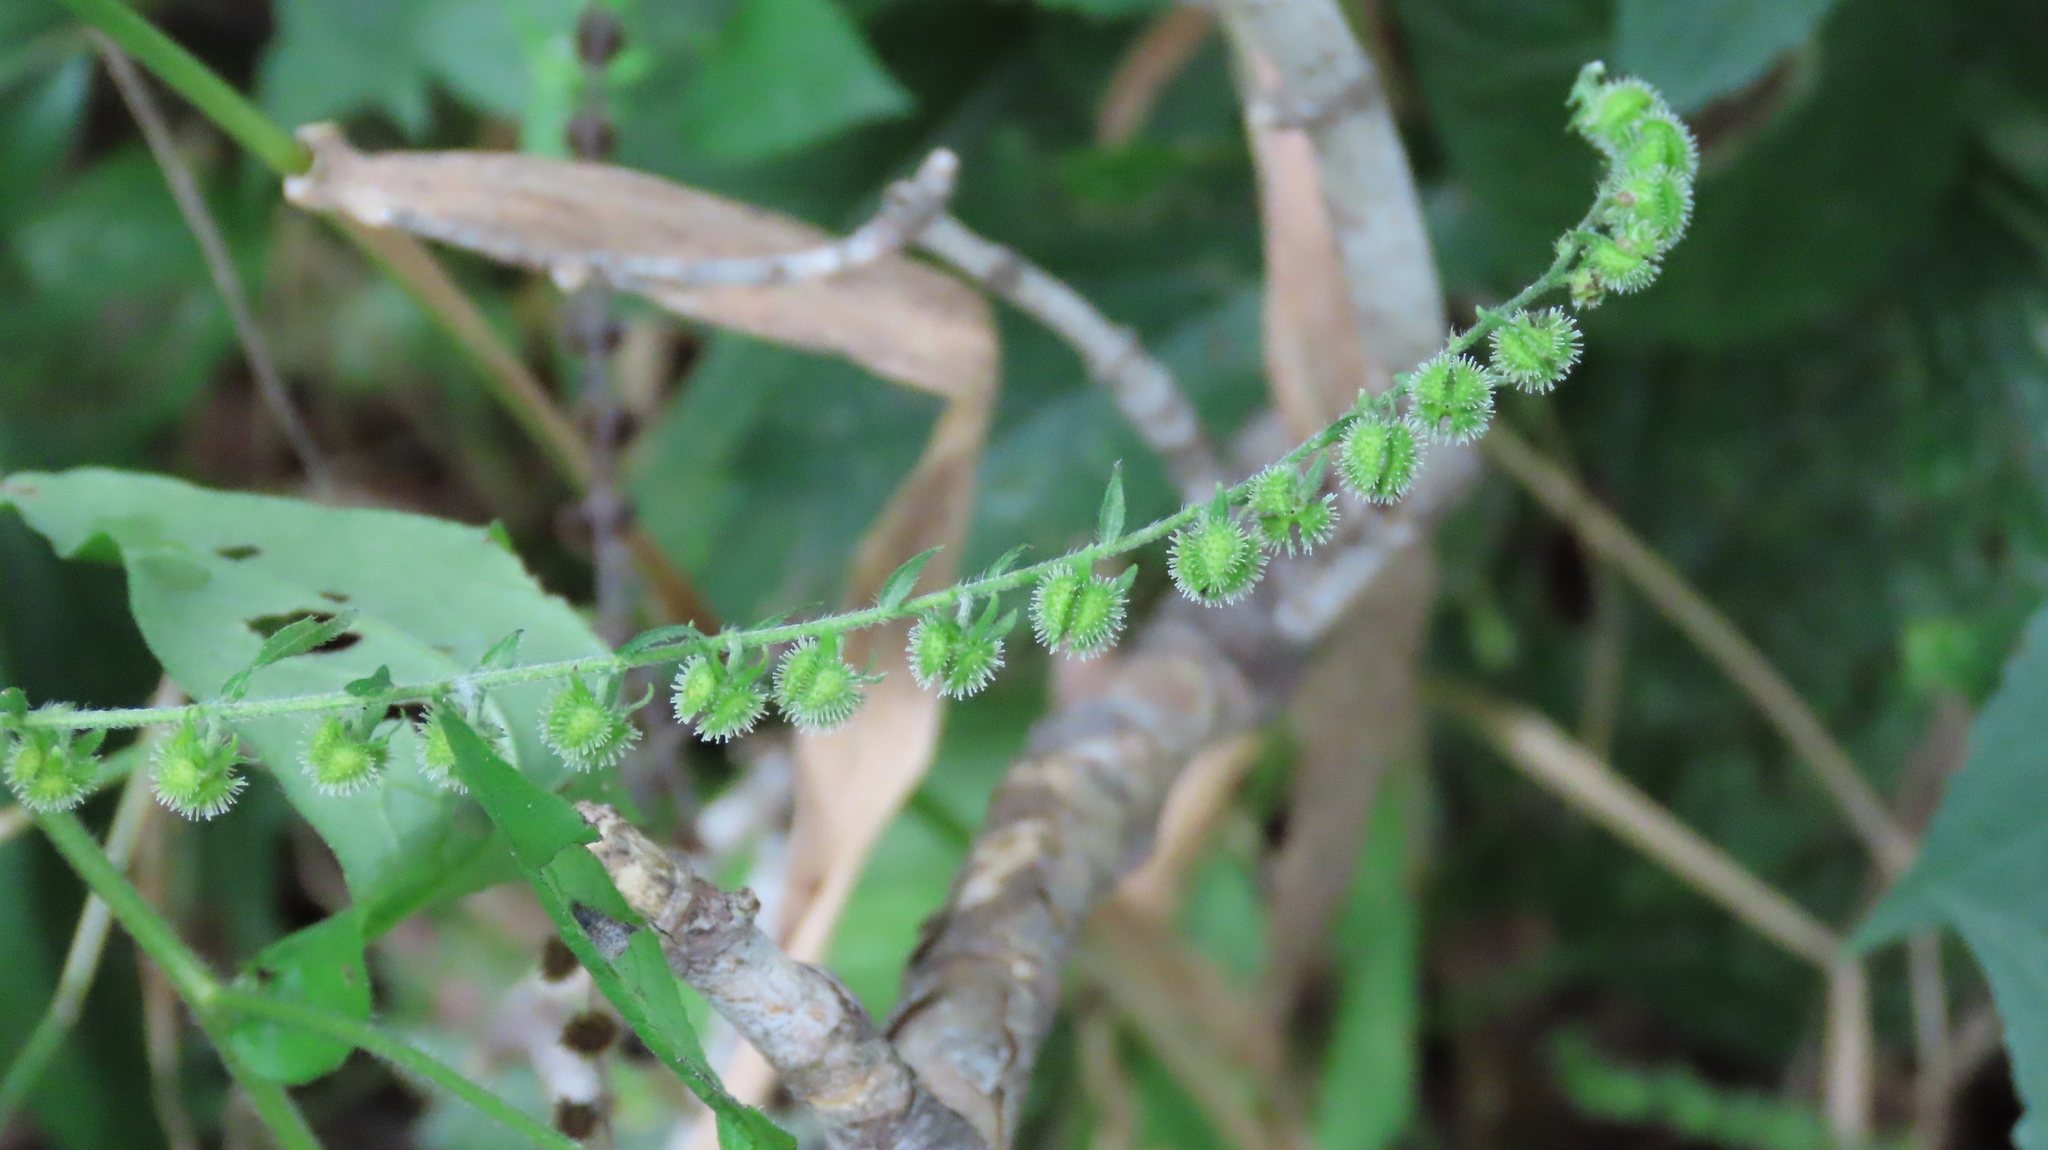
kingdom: Plantae
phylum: Tracheophyta
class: Magnoliopsida
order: Boraginales
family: Boraginaceae
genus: Hackelia
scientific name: Hackelia virginiana
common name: Beggar's-lice
